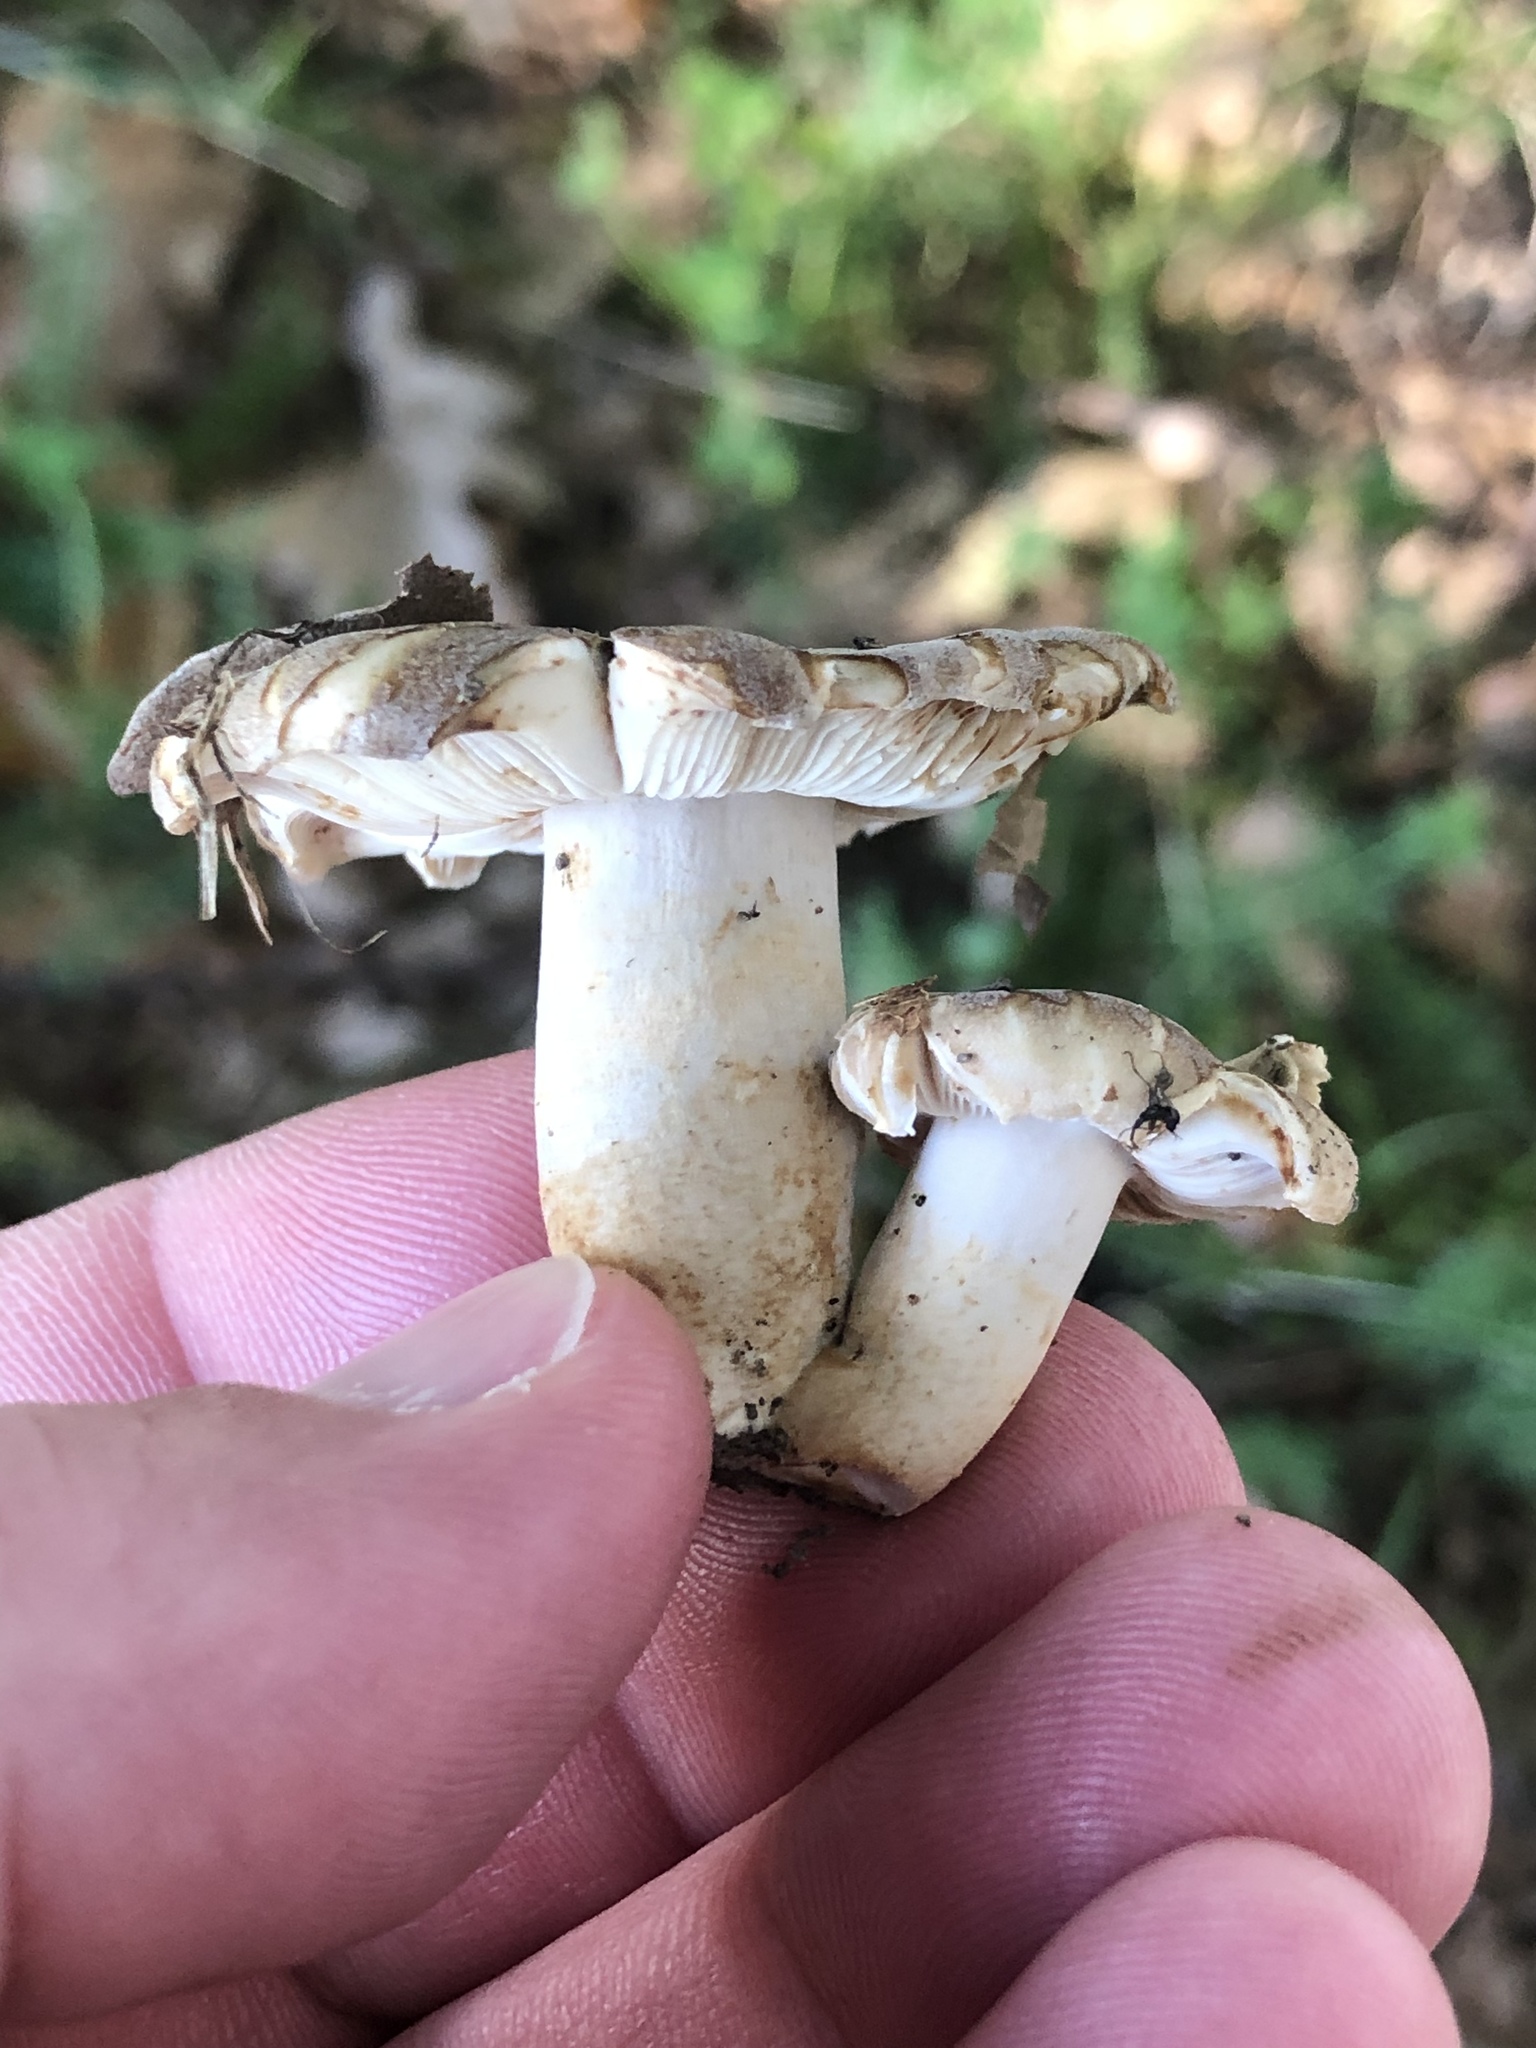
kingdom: Fungi
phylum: Basidiomycota
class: Agaricomycetes
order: Russulales
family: Russulaceae
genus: Russula
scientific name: Russula grisea
